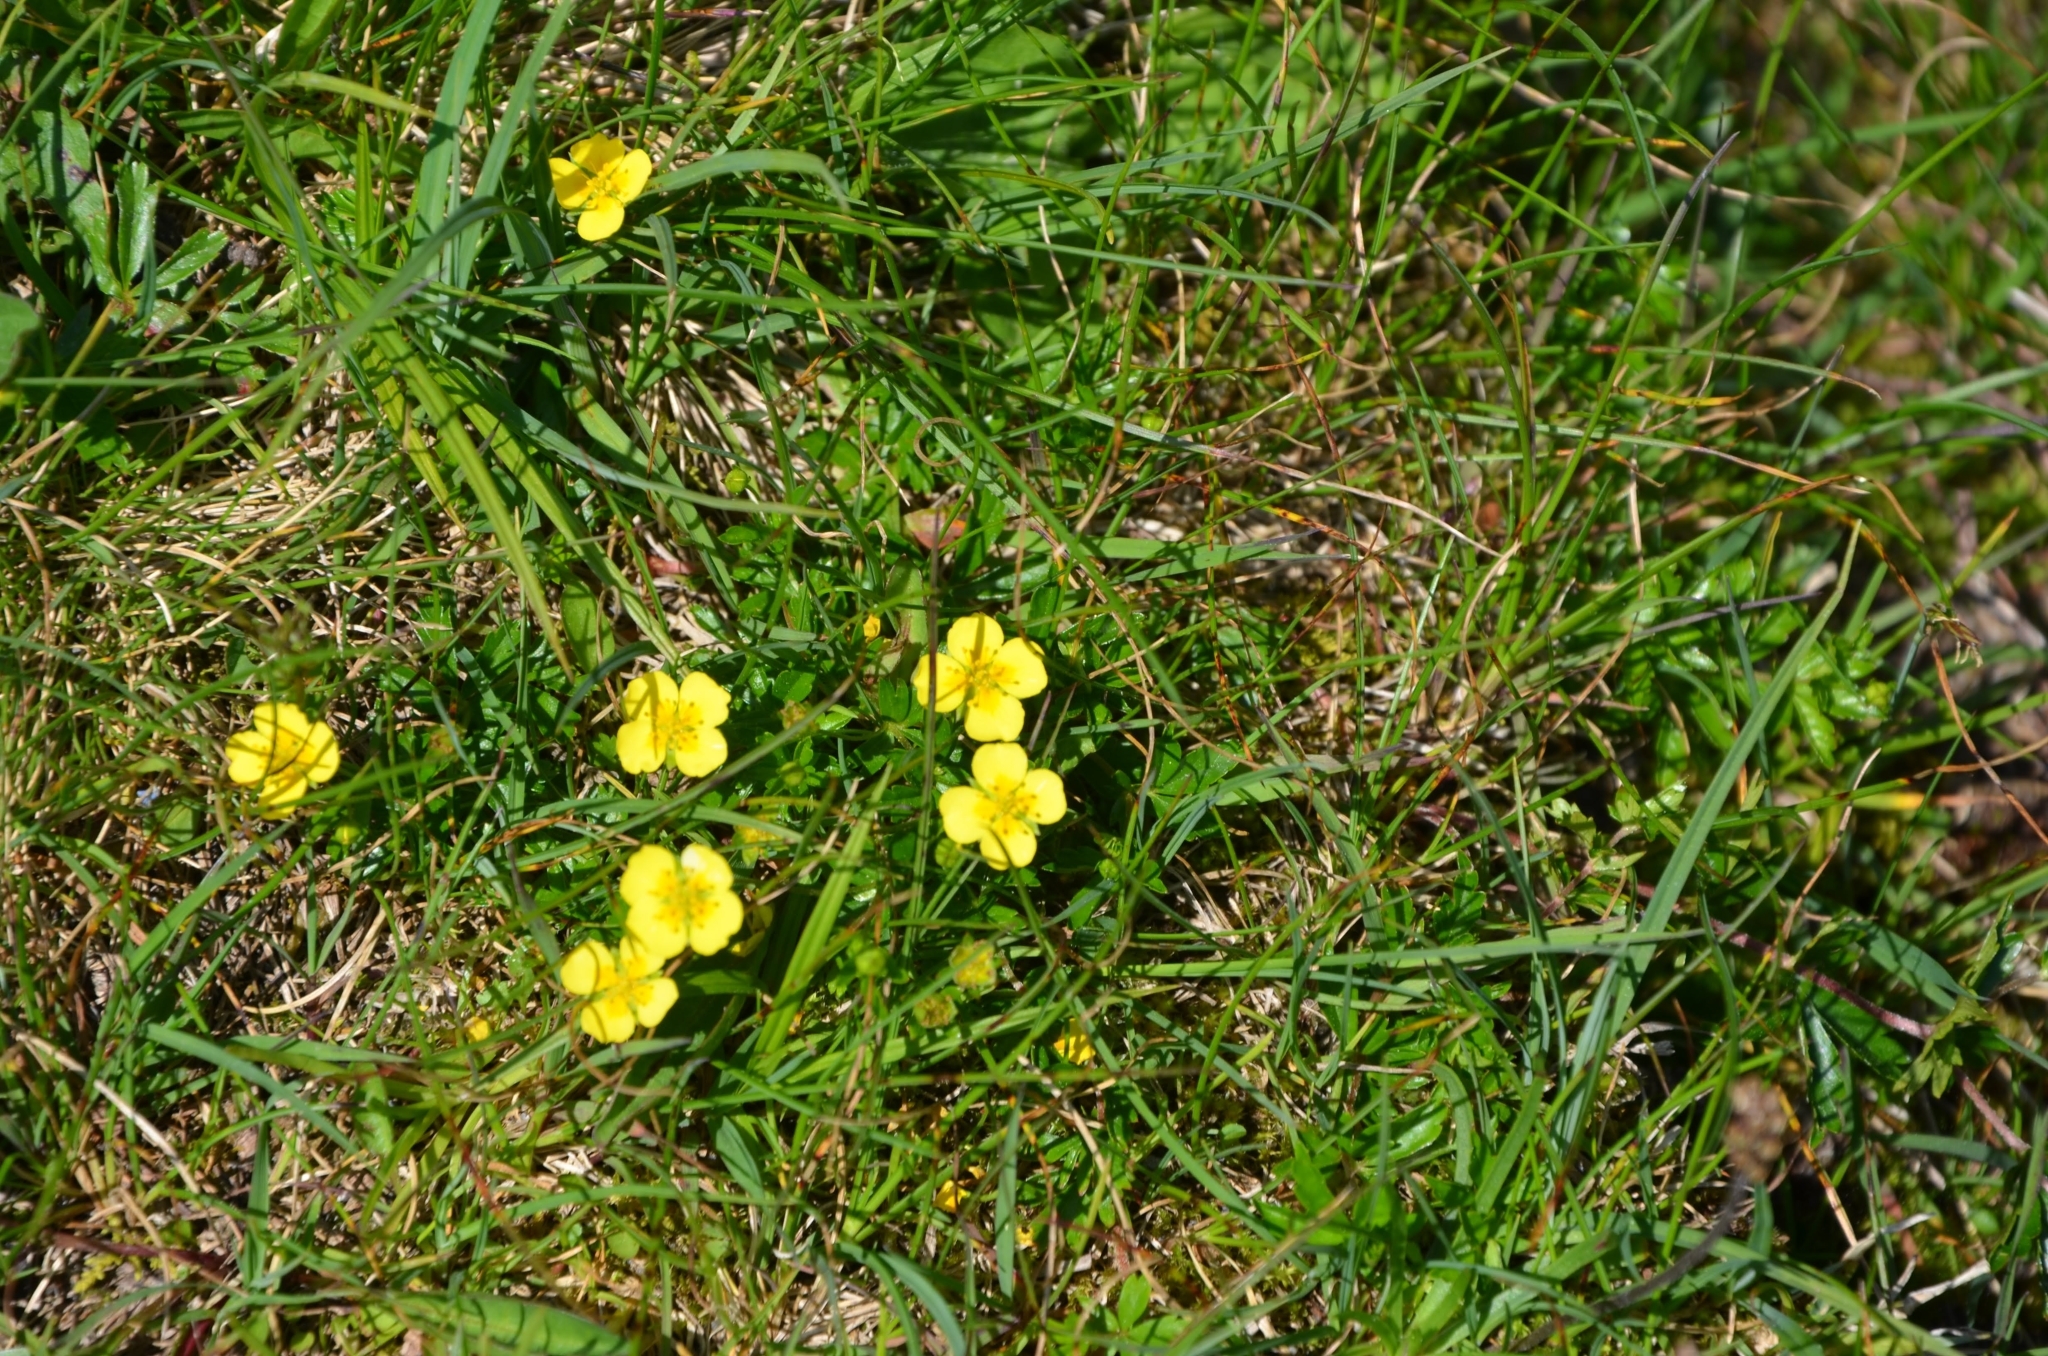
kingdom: Plantae
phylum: Tracheophyta
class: Magnoliopsida
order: Rosales
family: Rosaceae
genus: Potentilla
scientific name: Potentilla erecta
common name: Tormentil
